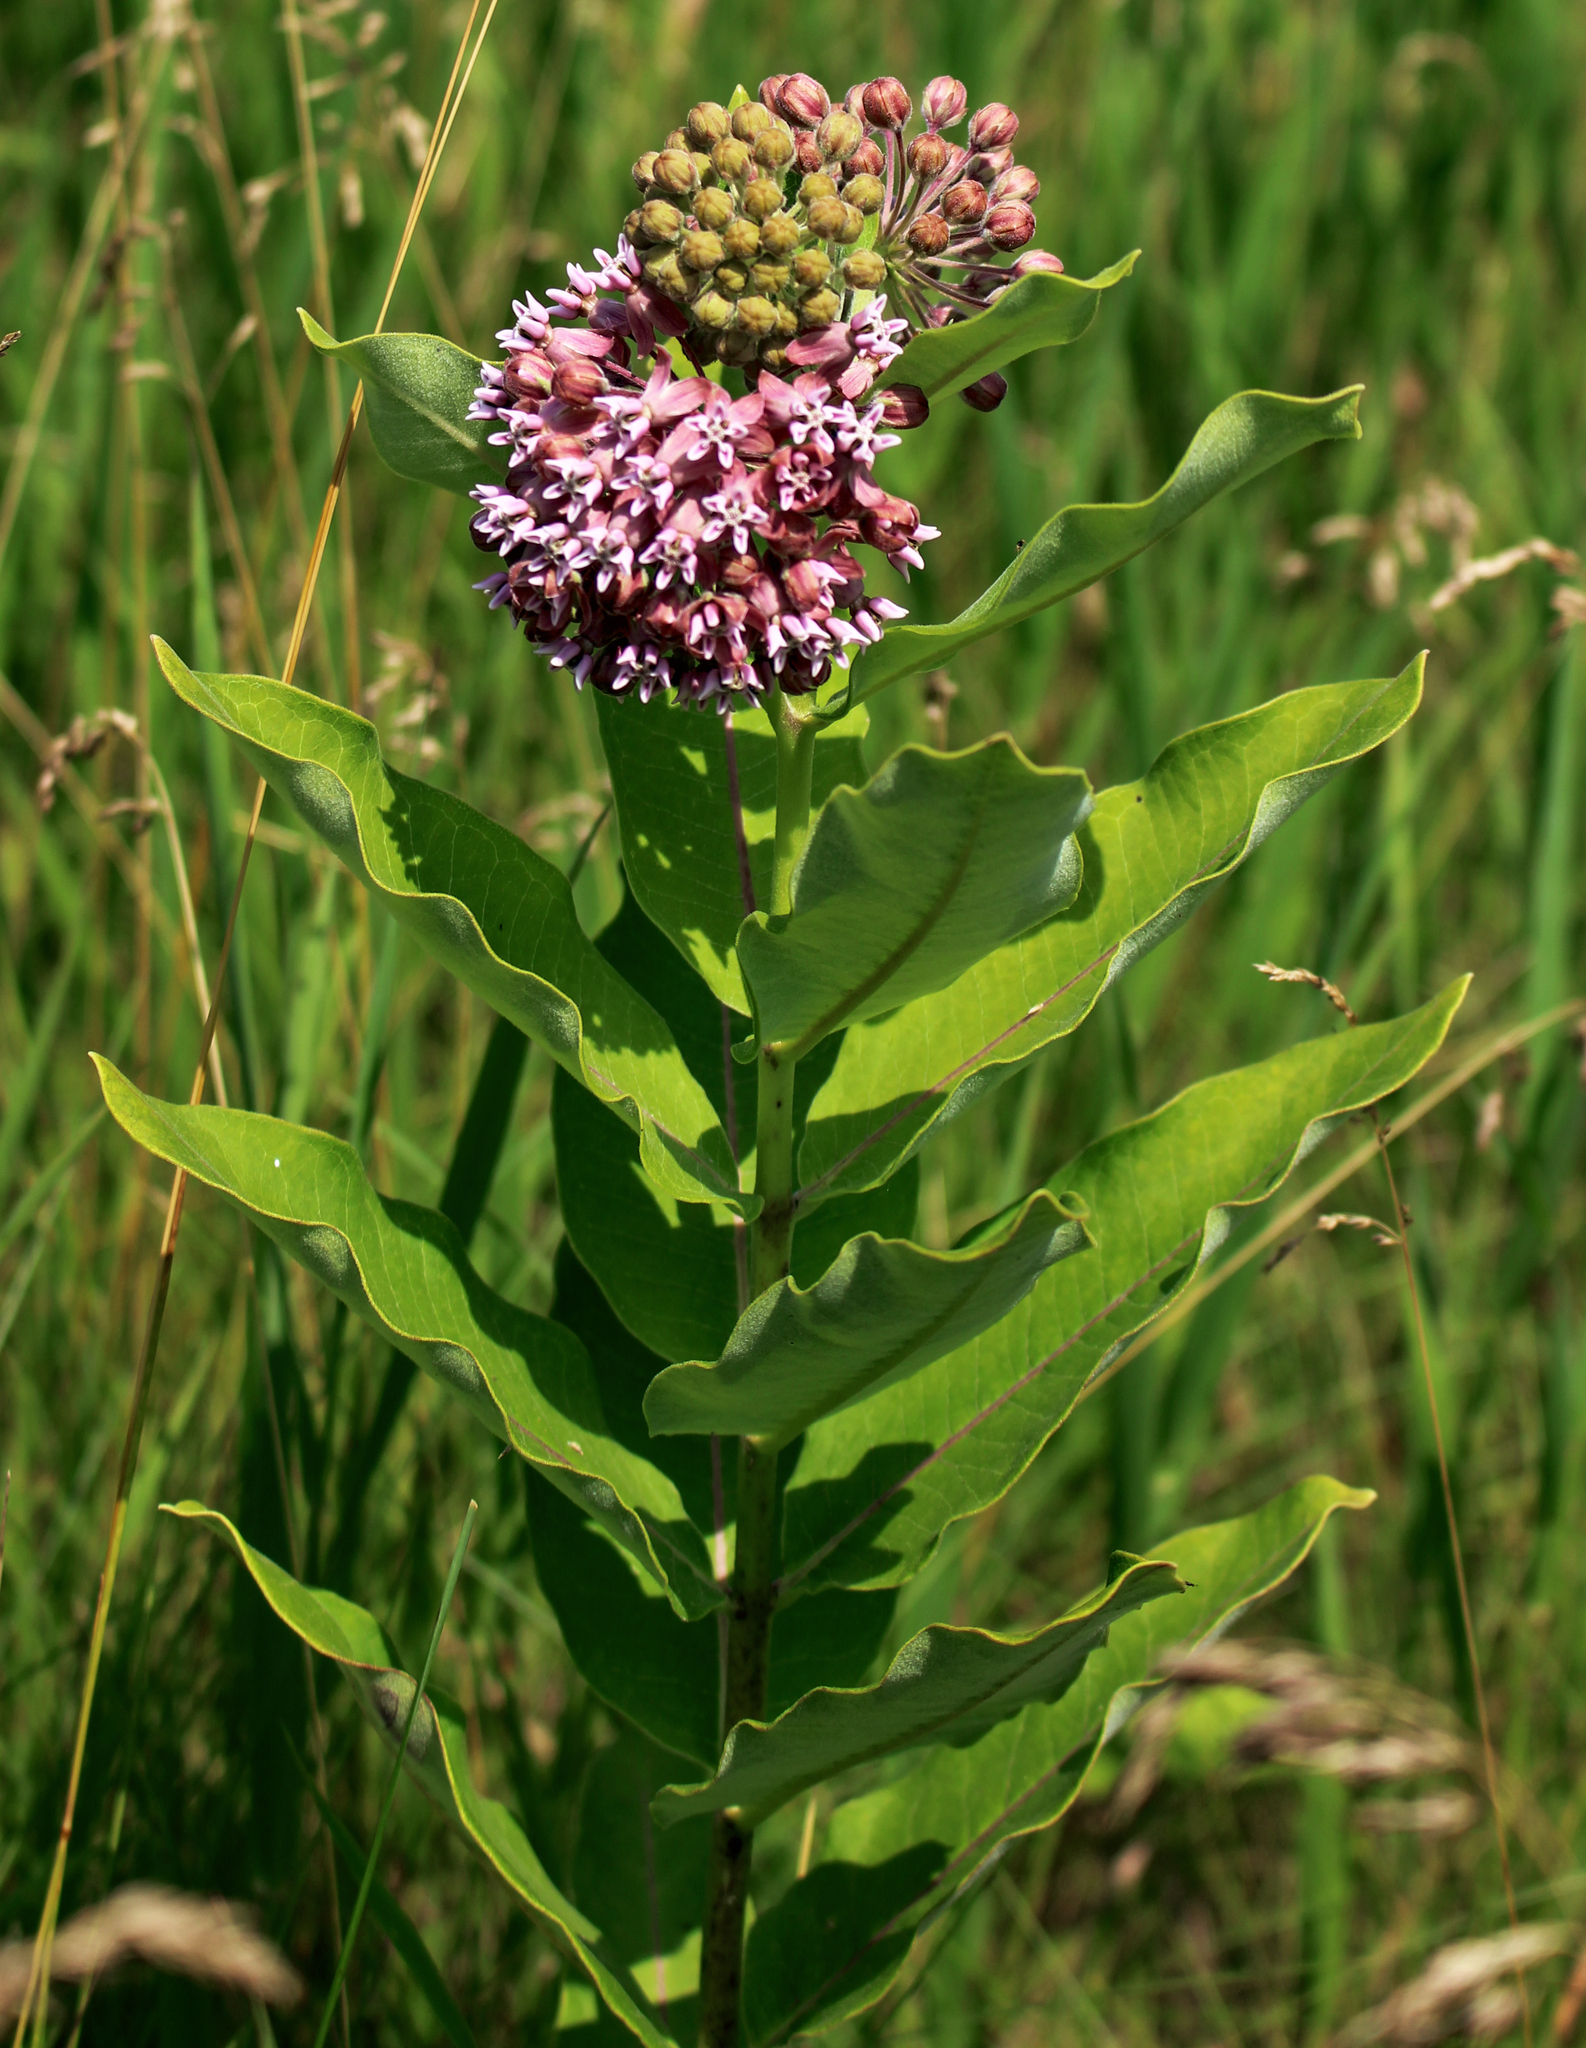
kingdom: Plantae
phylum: Tracheophyta
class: Magnoliopsida
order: Gentianales
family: Apocynaceae
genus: Asclepias
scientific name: Asclepias syriaca
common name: Common milkweed
